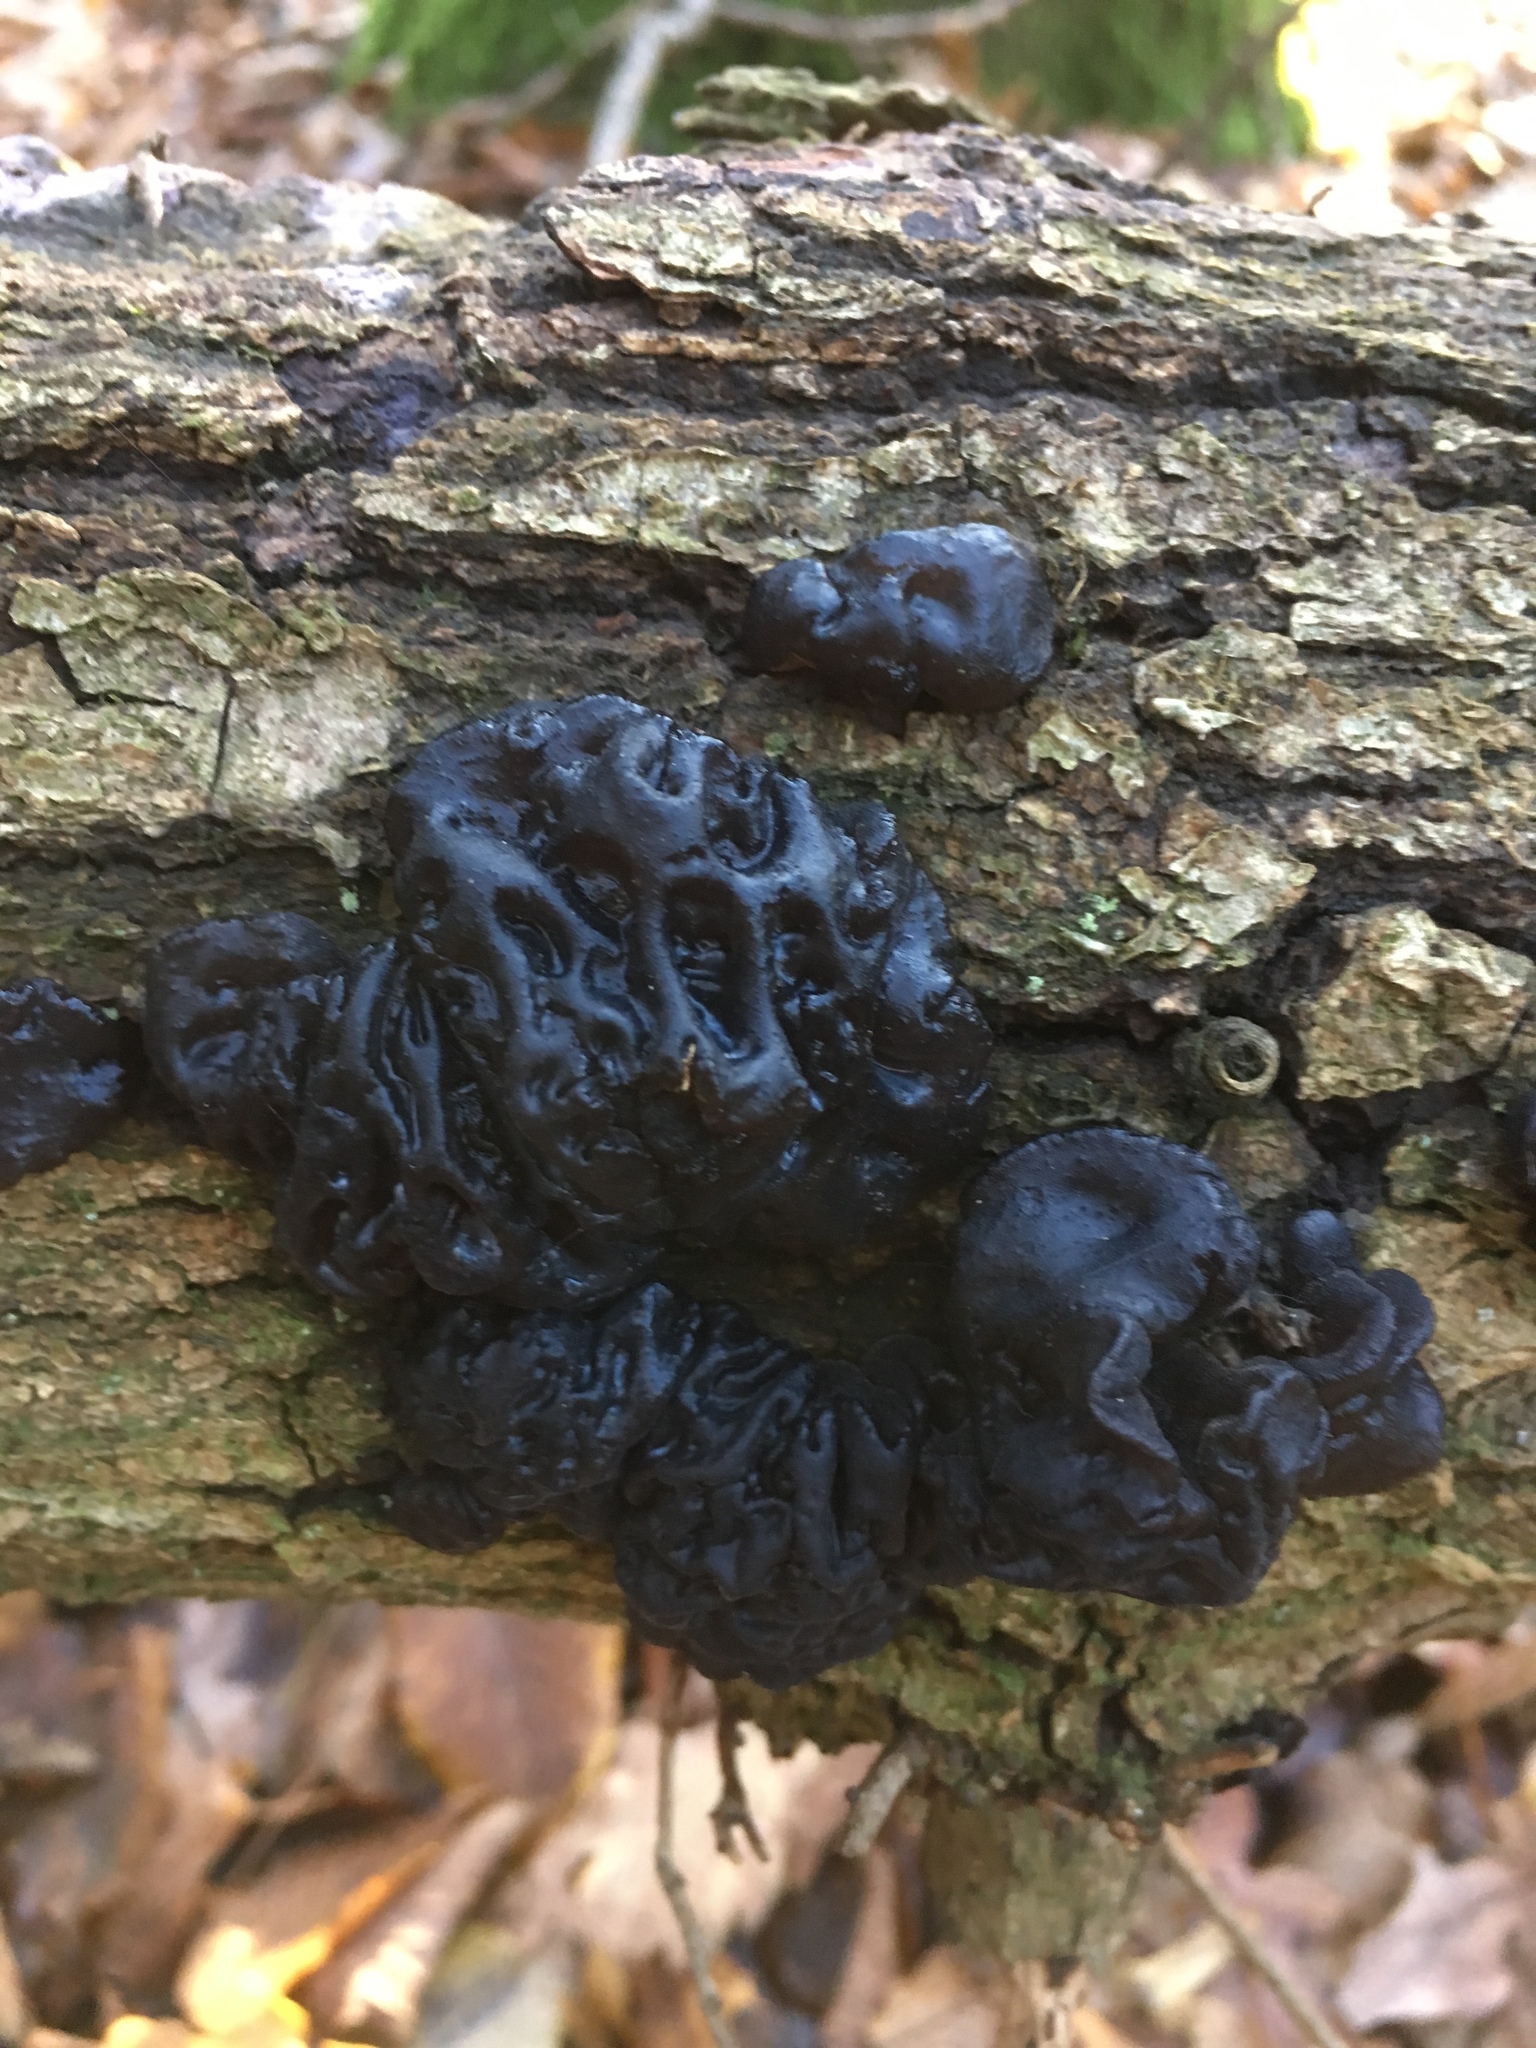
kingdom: Fungi
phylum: Basidiomycota
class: Agaricomycetes
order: Auriculariales
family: Auriculariaceae
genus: Exidia
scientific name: Exidia glandulosa
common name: Witches' butter
